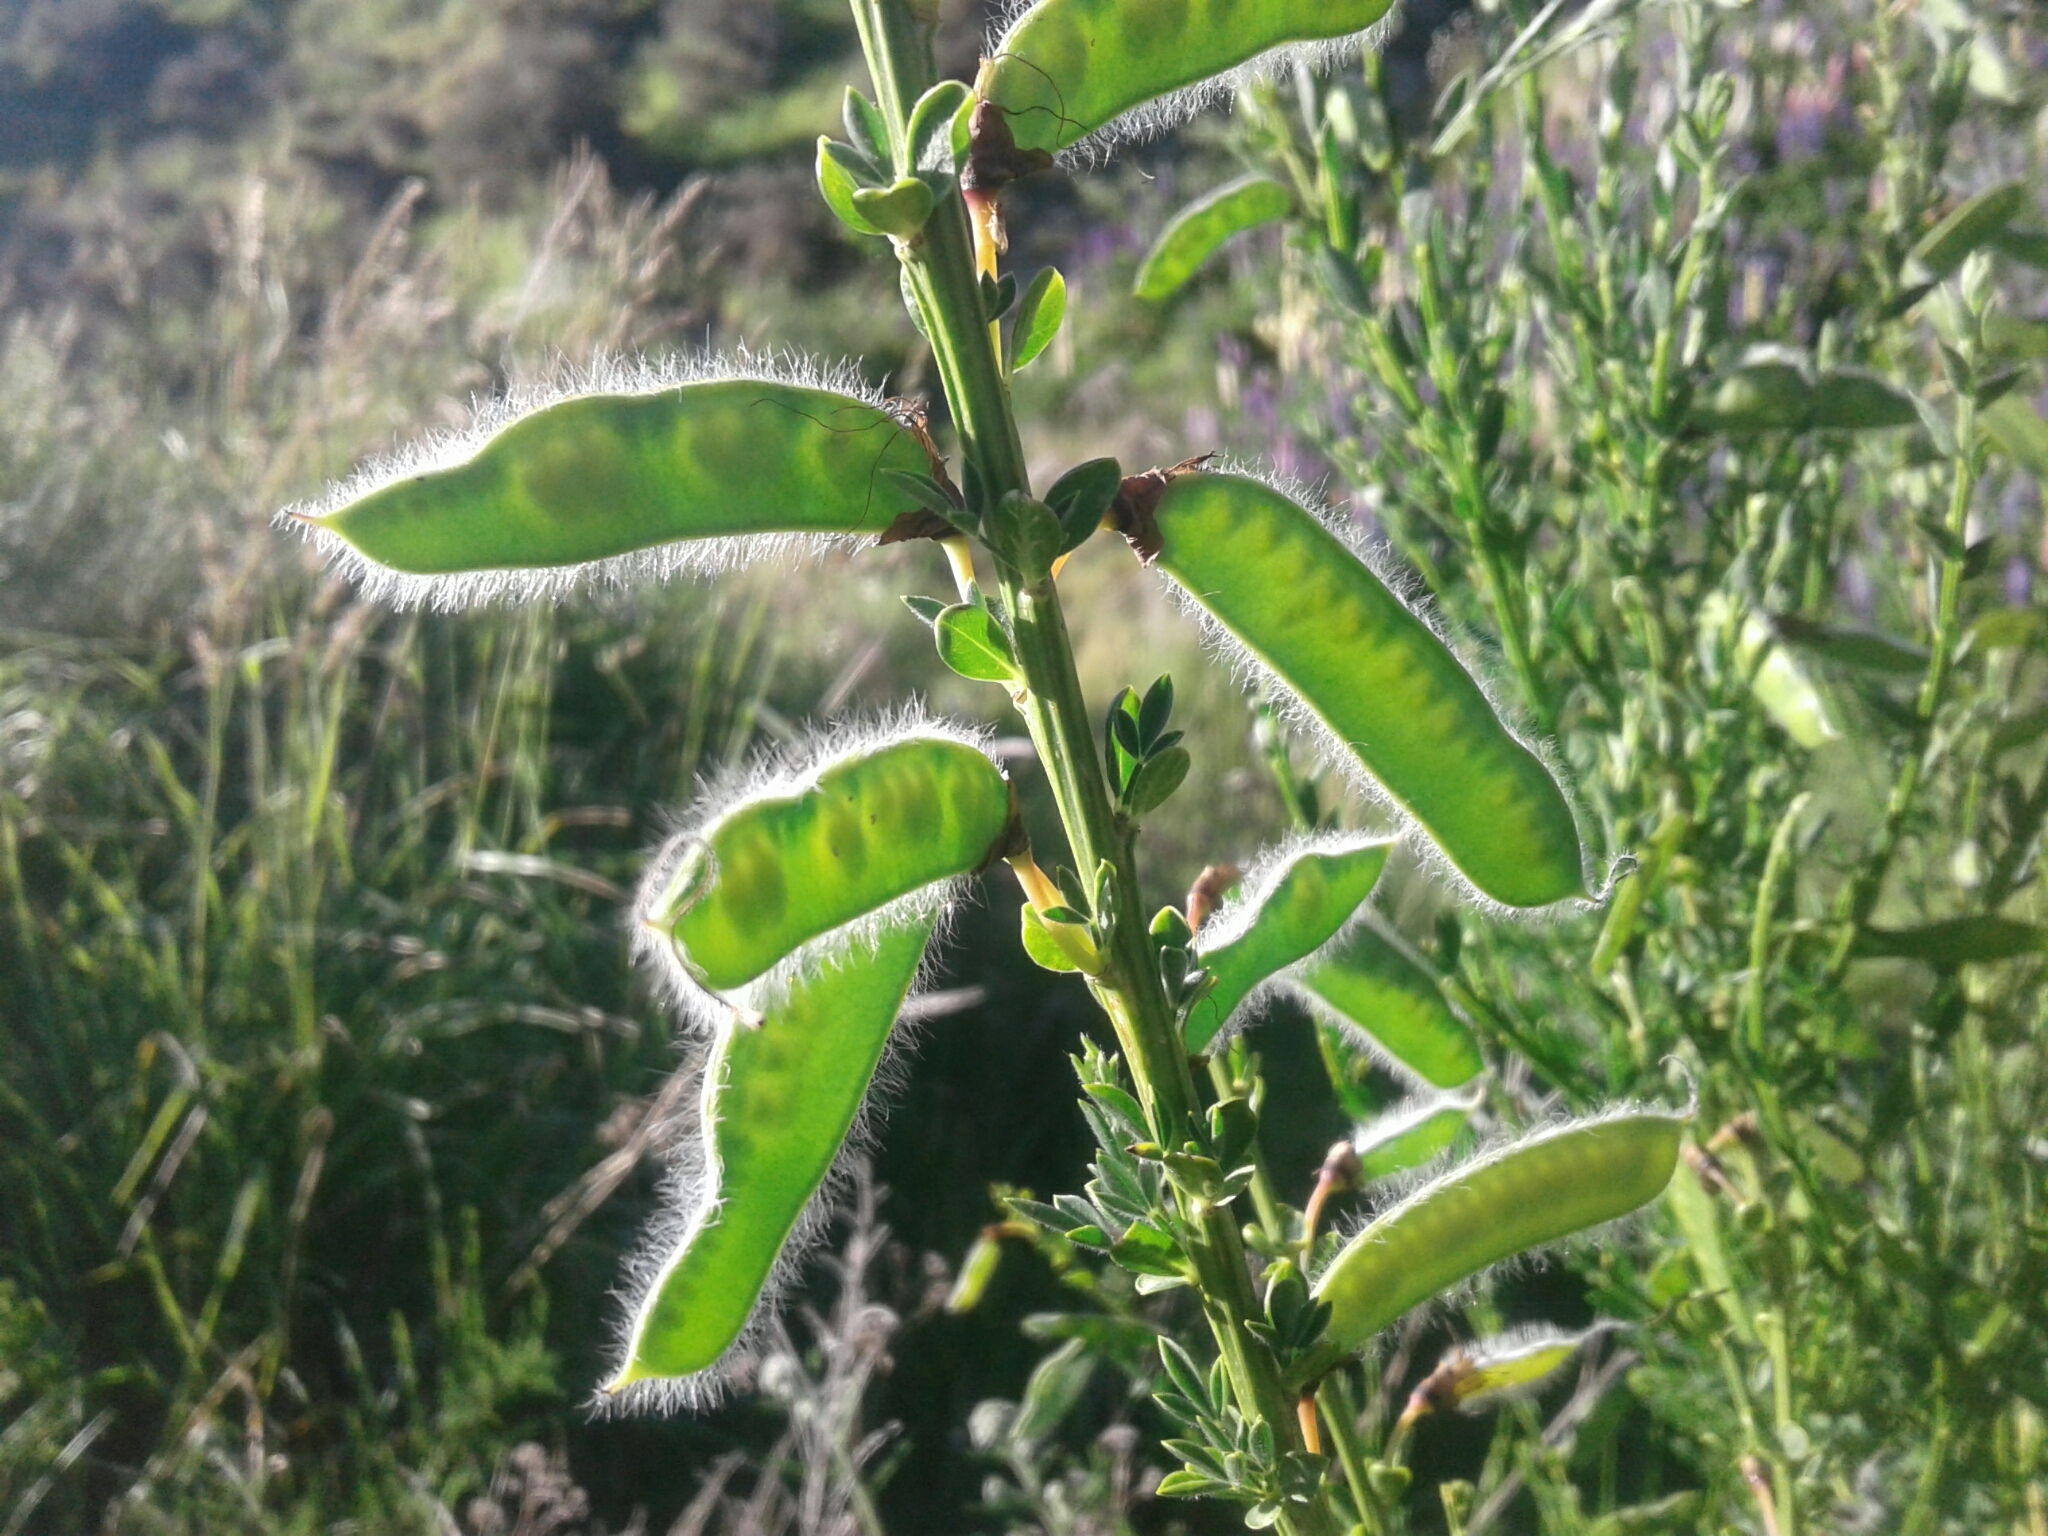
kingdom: Plantae
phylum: Tracheophyta
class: Magnoliopsida
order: Fabales
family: Fabaceae
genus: Cytisus
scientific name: Cytisus scoparius
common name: Scotch broom
